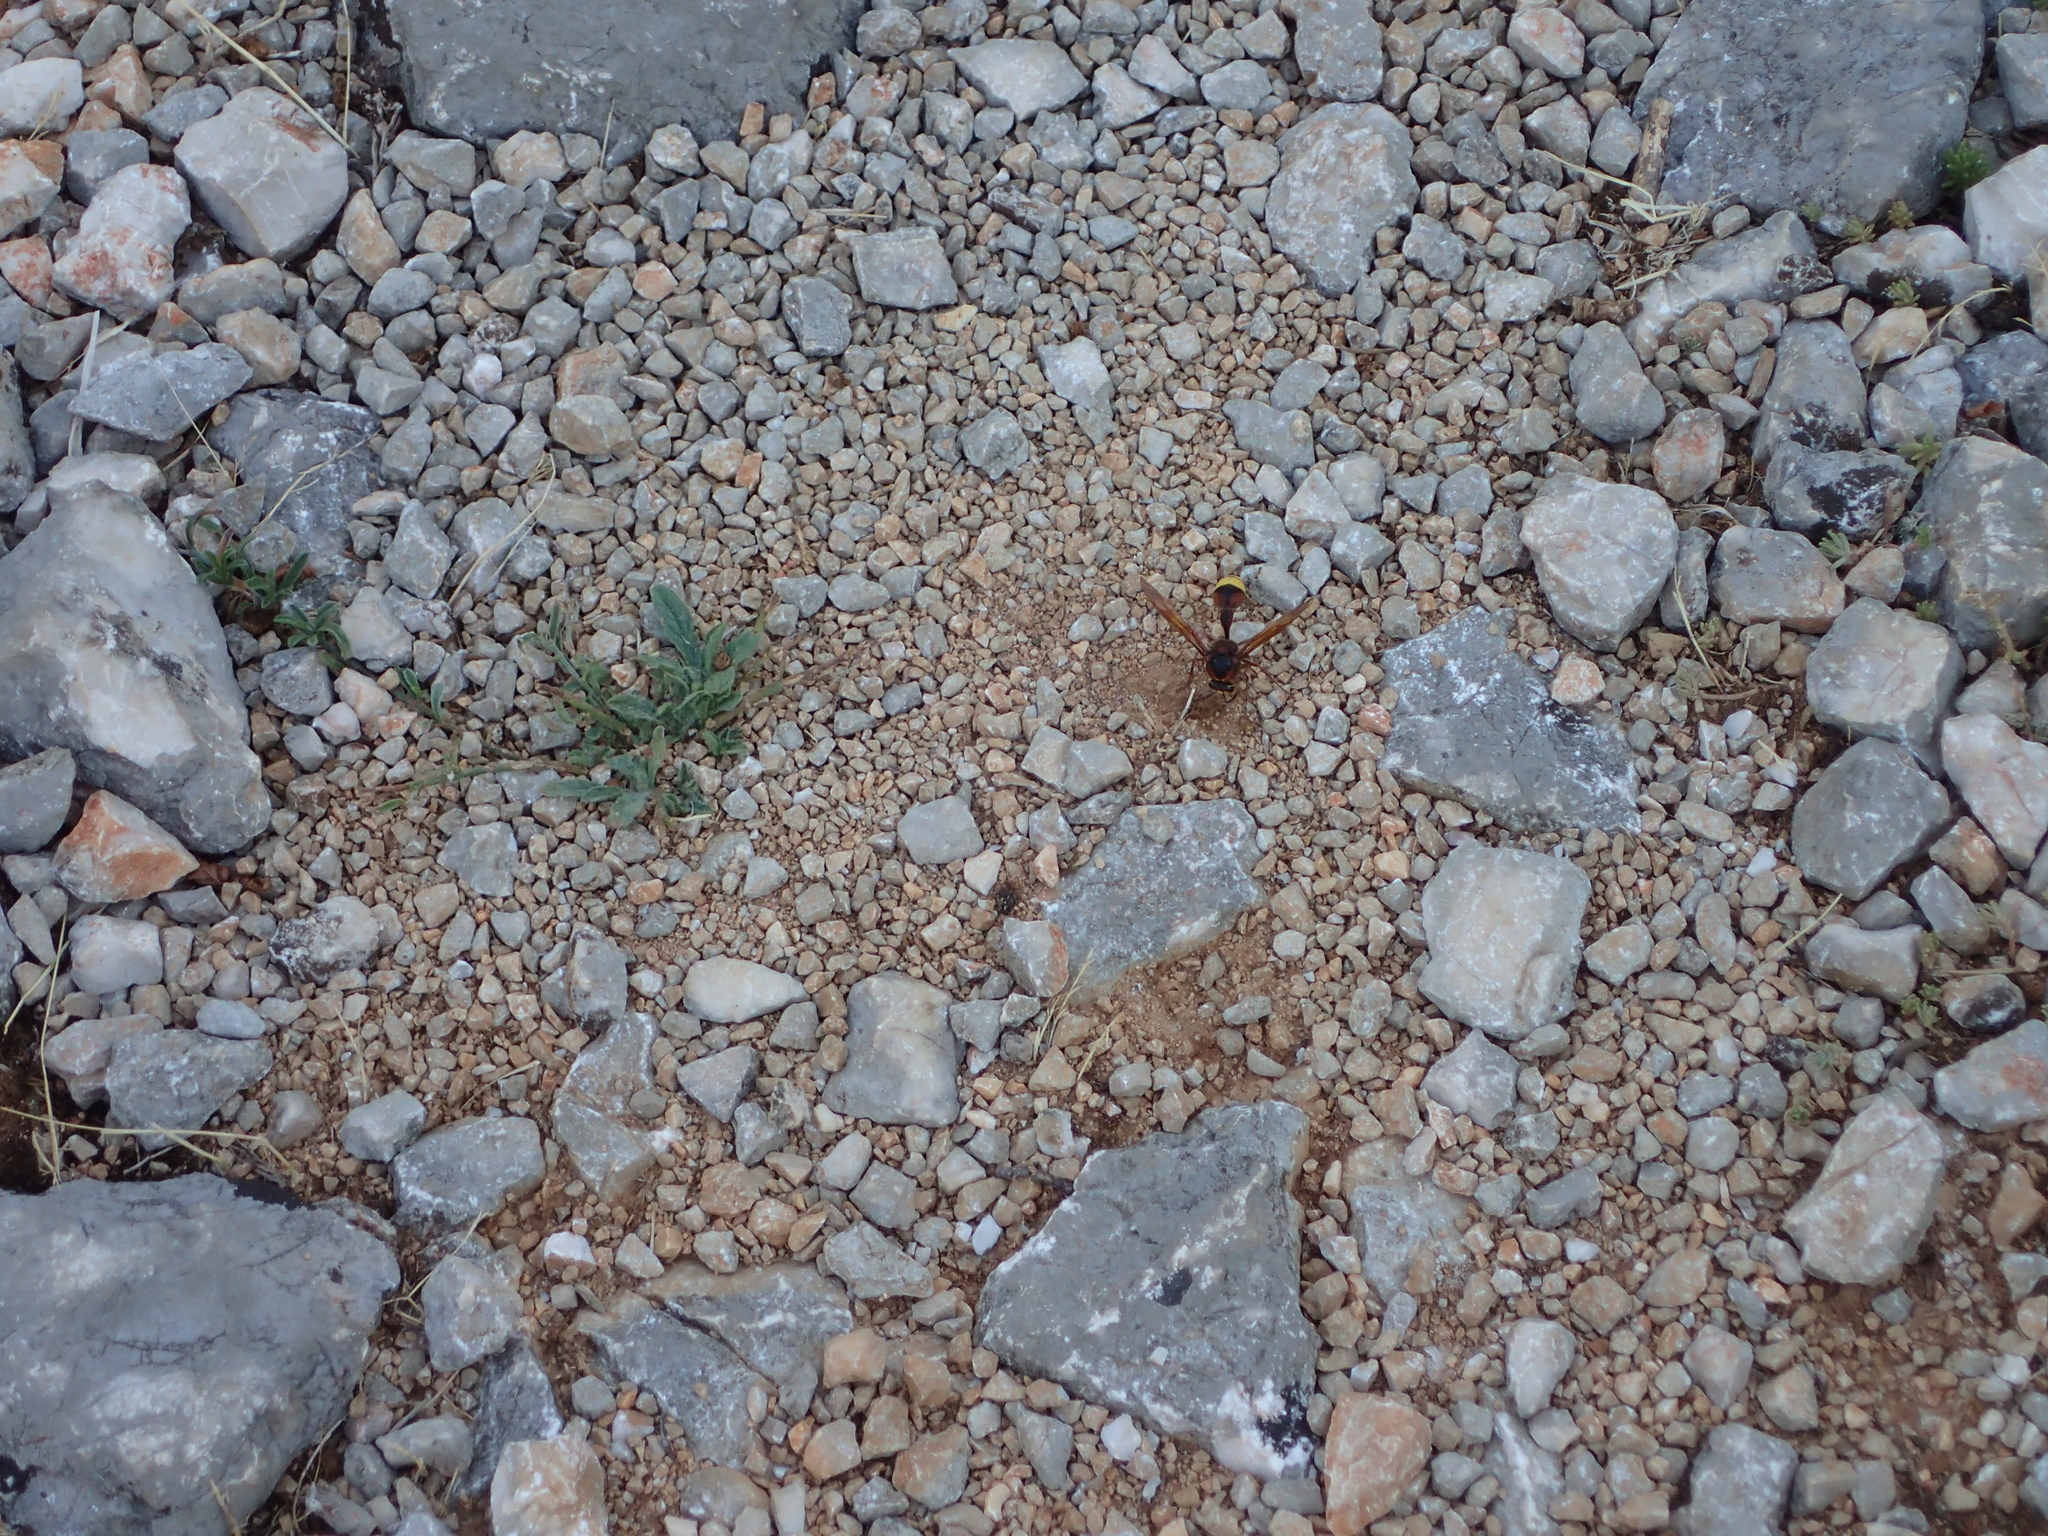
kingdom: Animalia
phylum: Arthropoda
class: Insecta
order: Hymenoptera
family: Eumenidae
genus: Delta
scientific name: Delta unguiculatum
